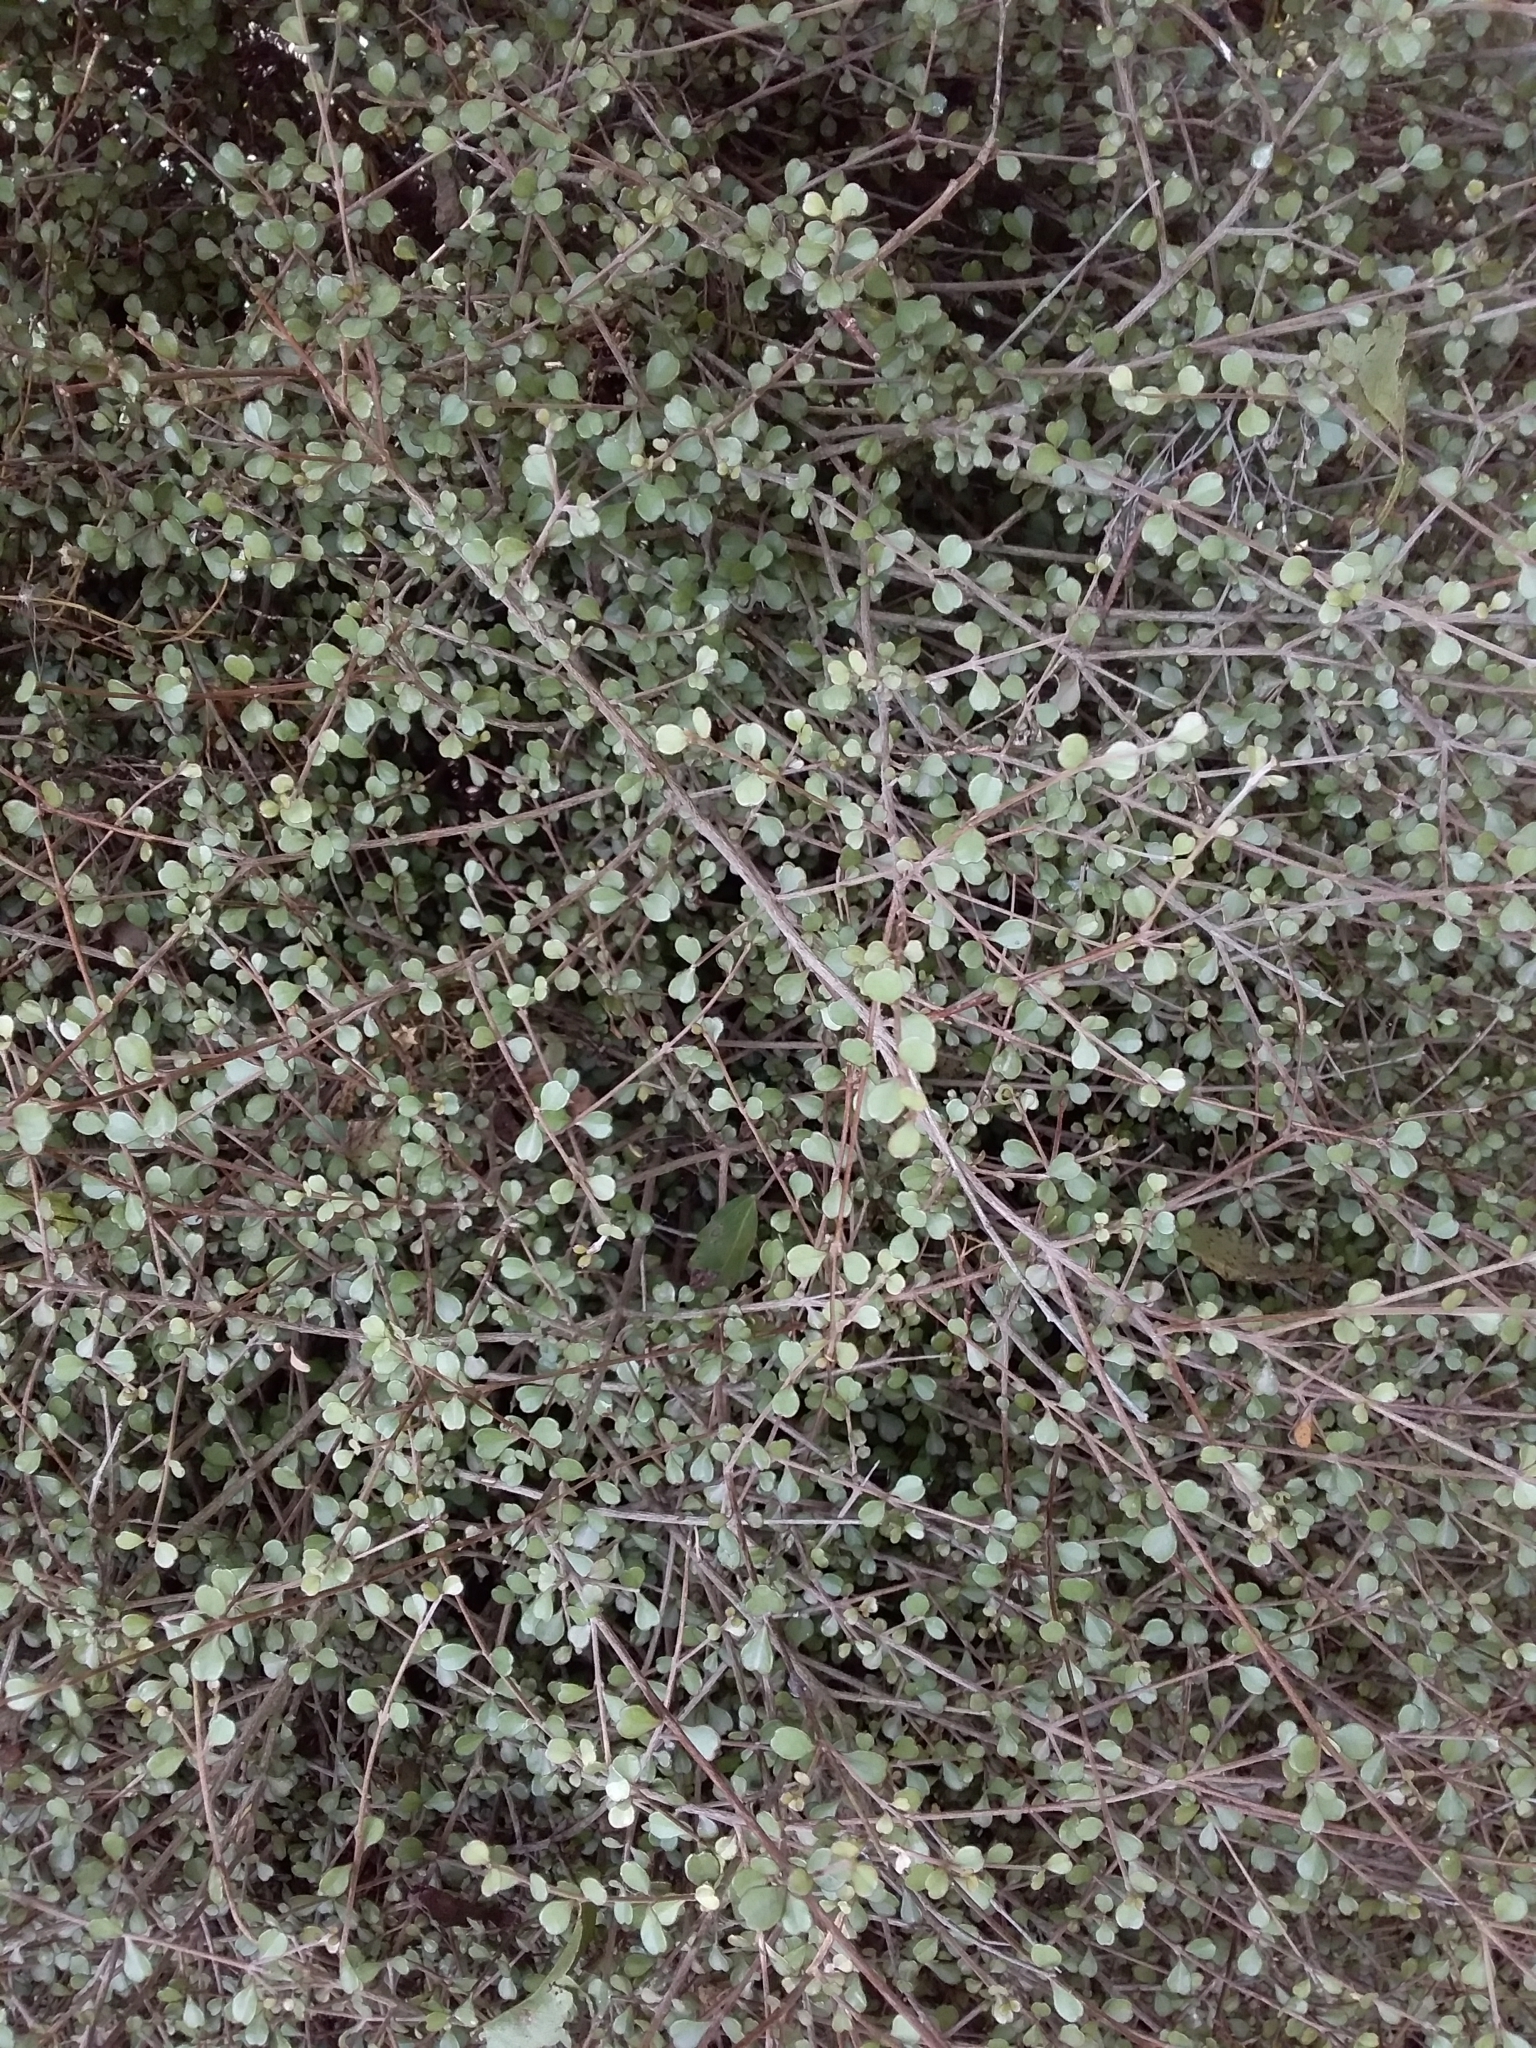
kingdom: Plantae
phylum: Tracheophyta
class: Magnoliopsida
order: Myrtales
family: Myrtaceae
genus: Lophomyrtus
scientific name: Lophomyrtus obcordata
